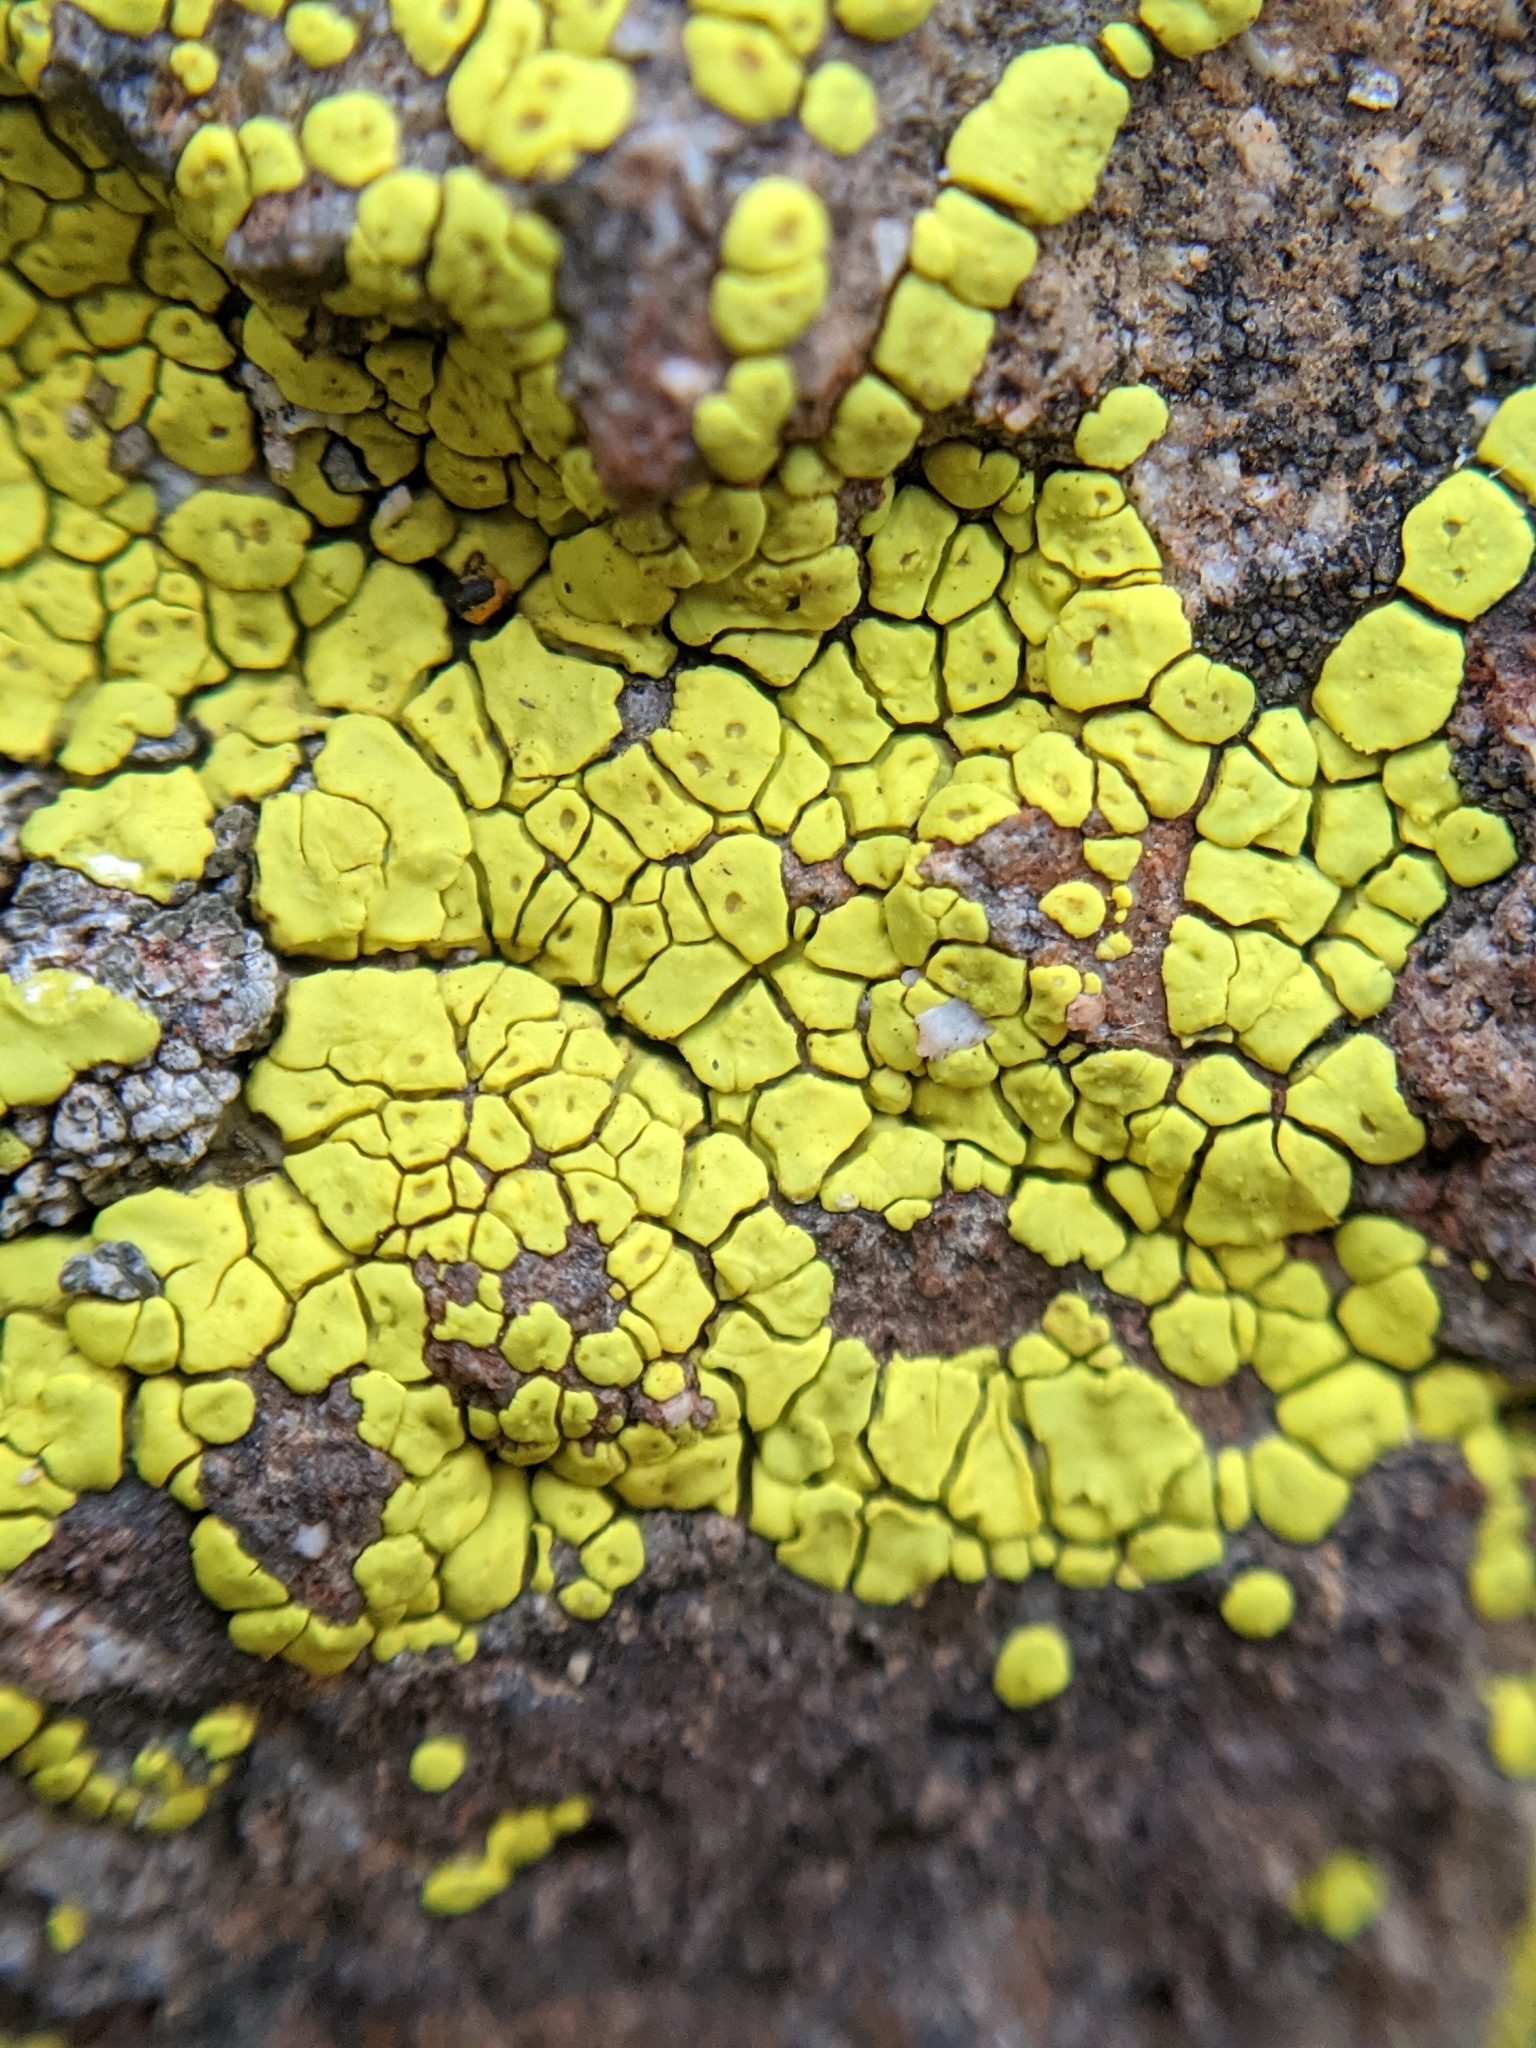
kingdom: Fungi
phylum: Ascomycota
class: Lecanoromycetes
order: Acarosporales
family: Acarosporaceae
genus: Acarospora
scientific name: Acarospora socialis
